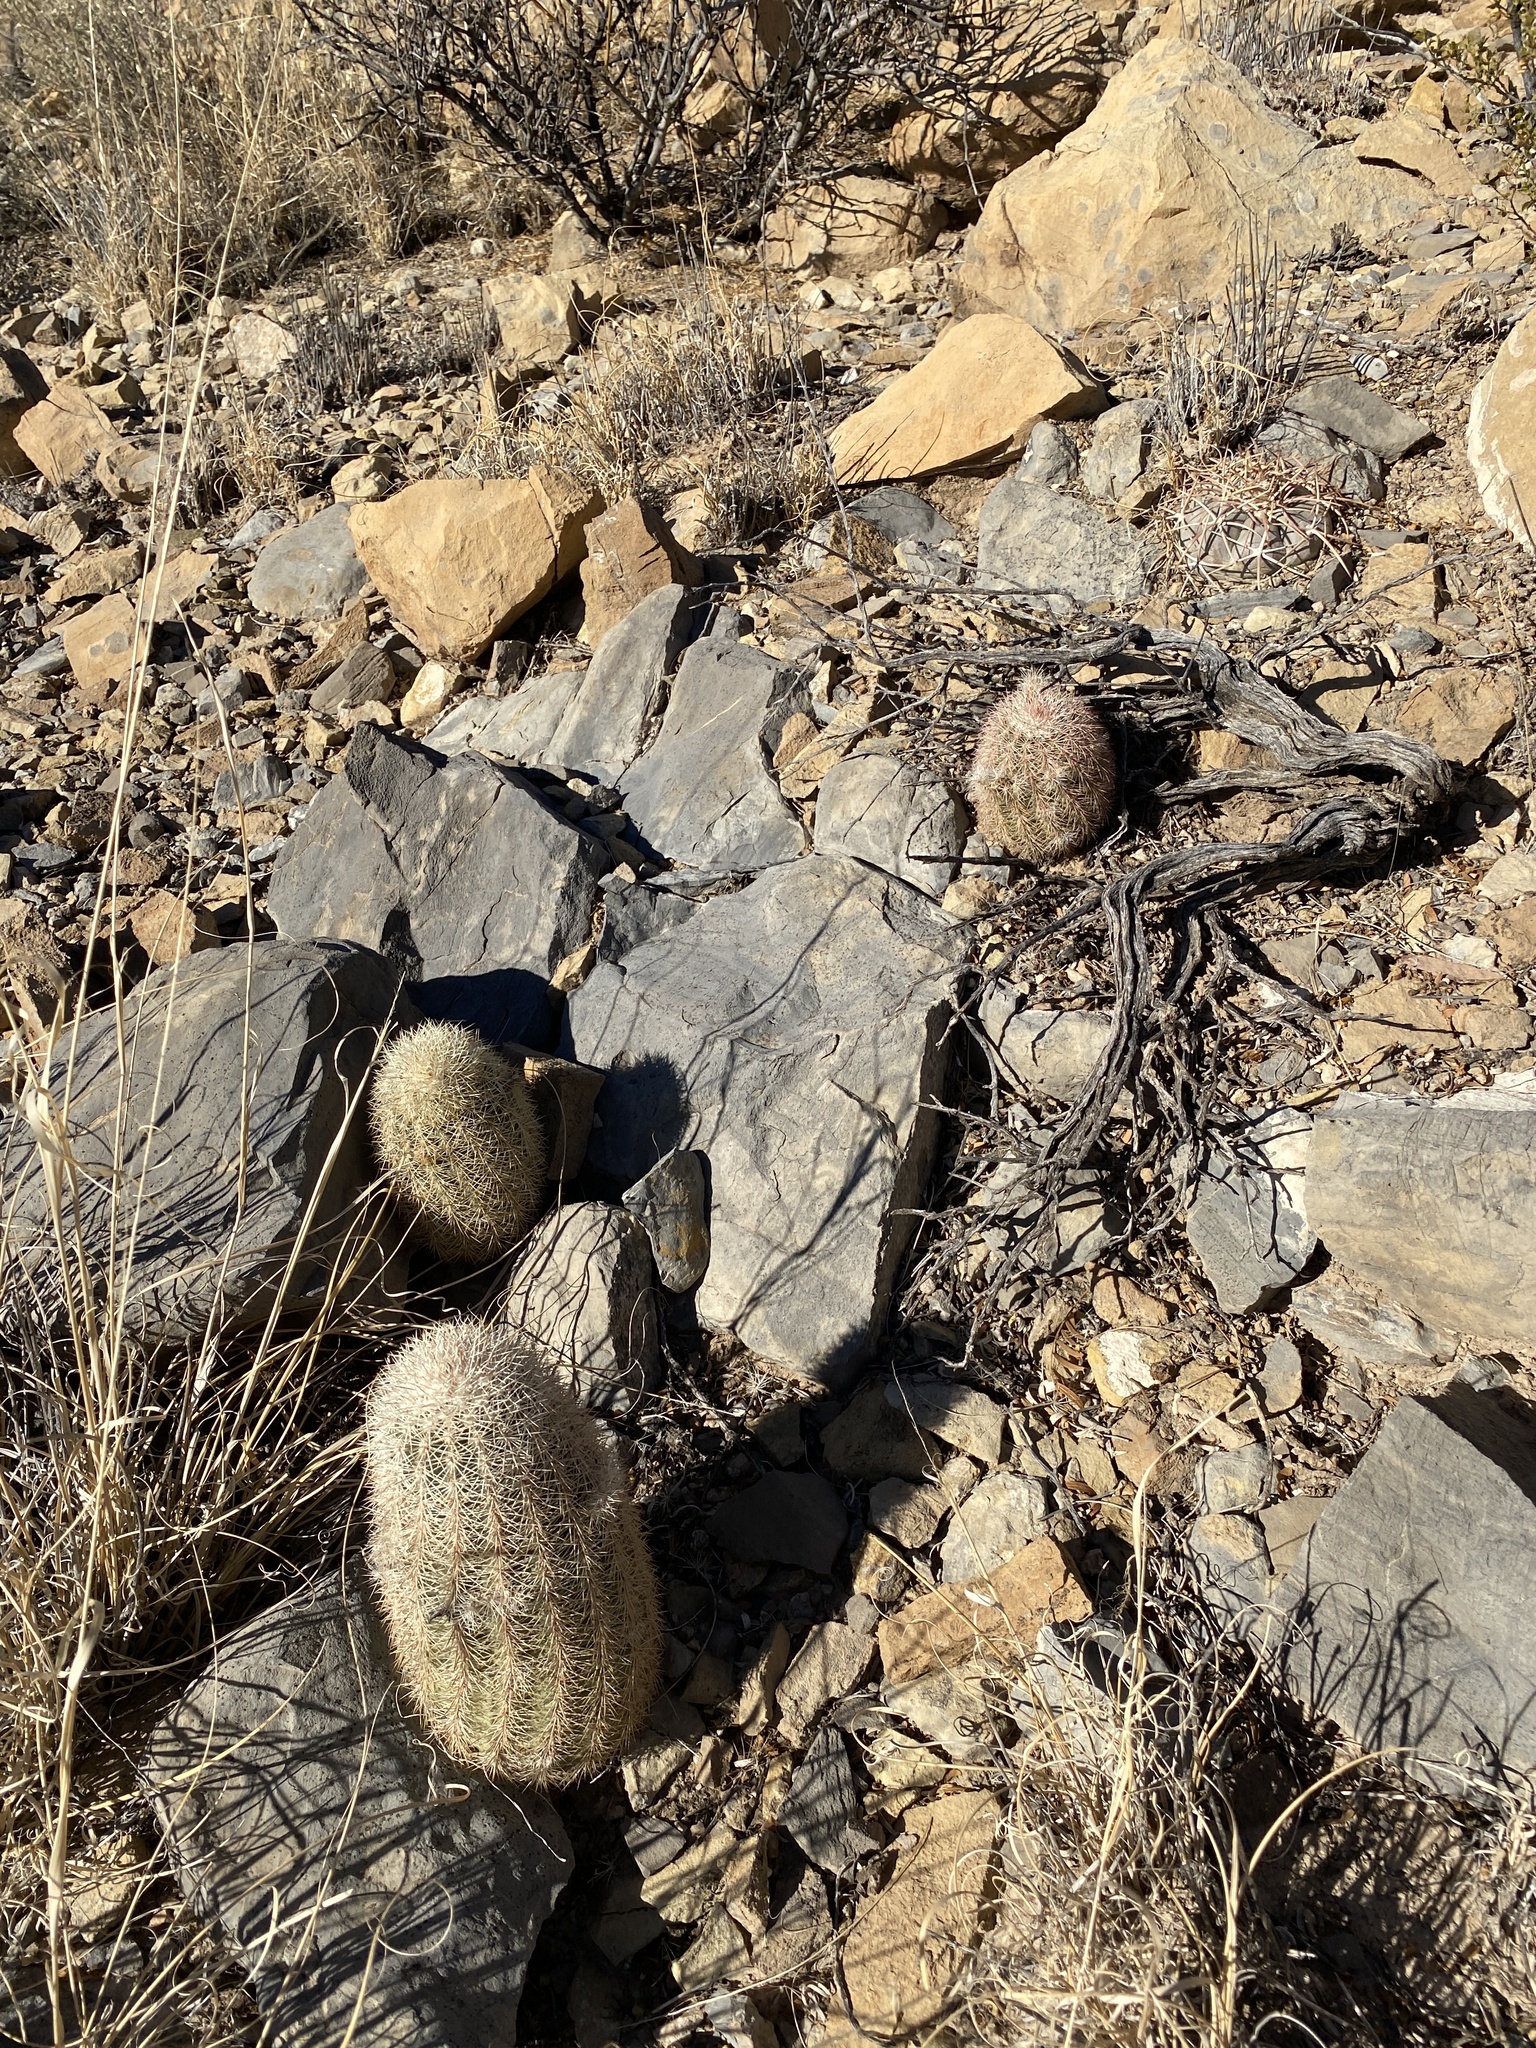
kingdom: Plantae
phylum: Tracheophyta
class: Magnoliopsida
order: Caryophyllales
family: Cactaceae
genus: Echinocereus
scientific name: Echinocereus dasyacanthus
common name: Spiny hedgehog cactus
